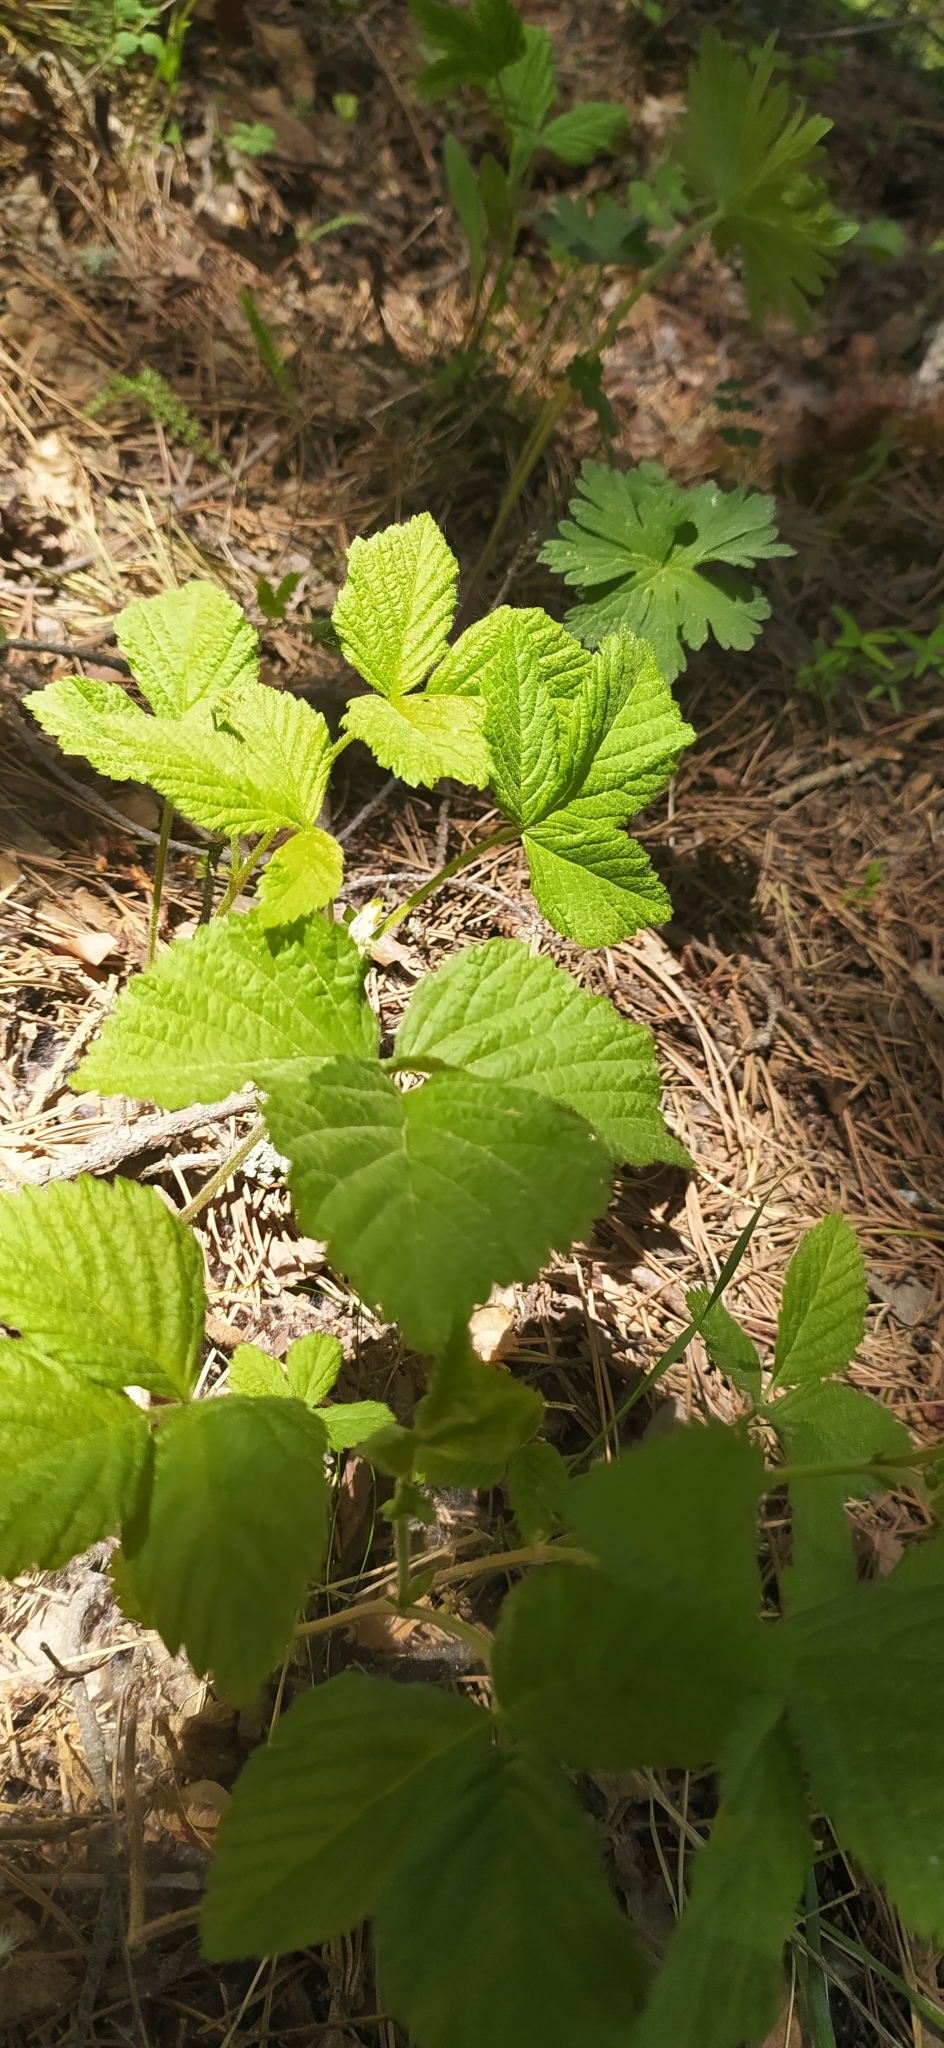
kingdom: Plantae
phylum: Tracheophyta
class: Magnoliopsida
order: Rosales
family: Rosaceae
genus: Rubus
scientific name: Rubus saxatilis
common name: Stone bramble
